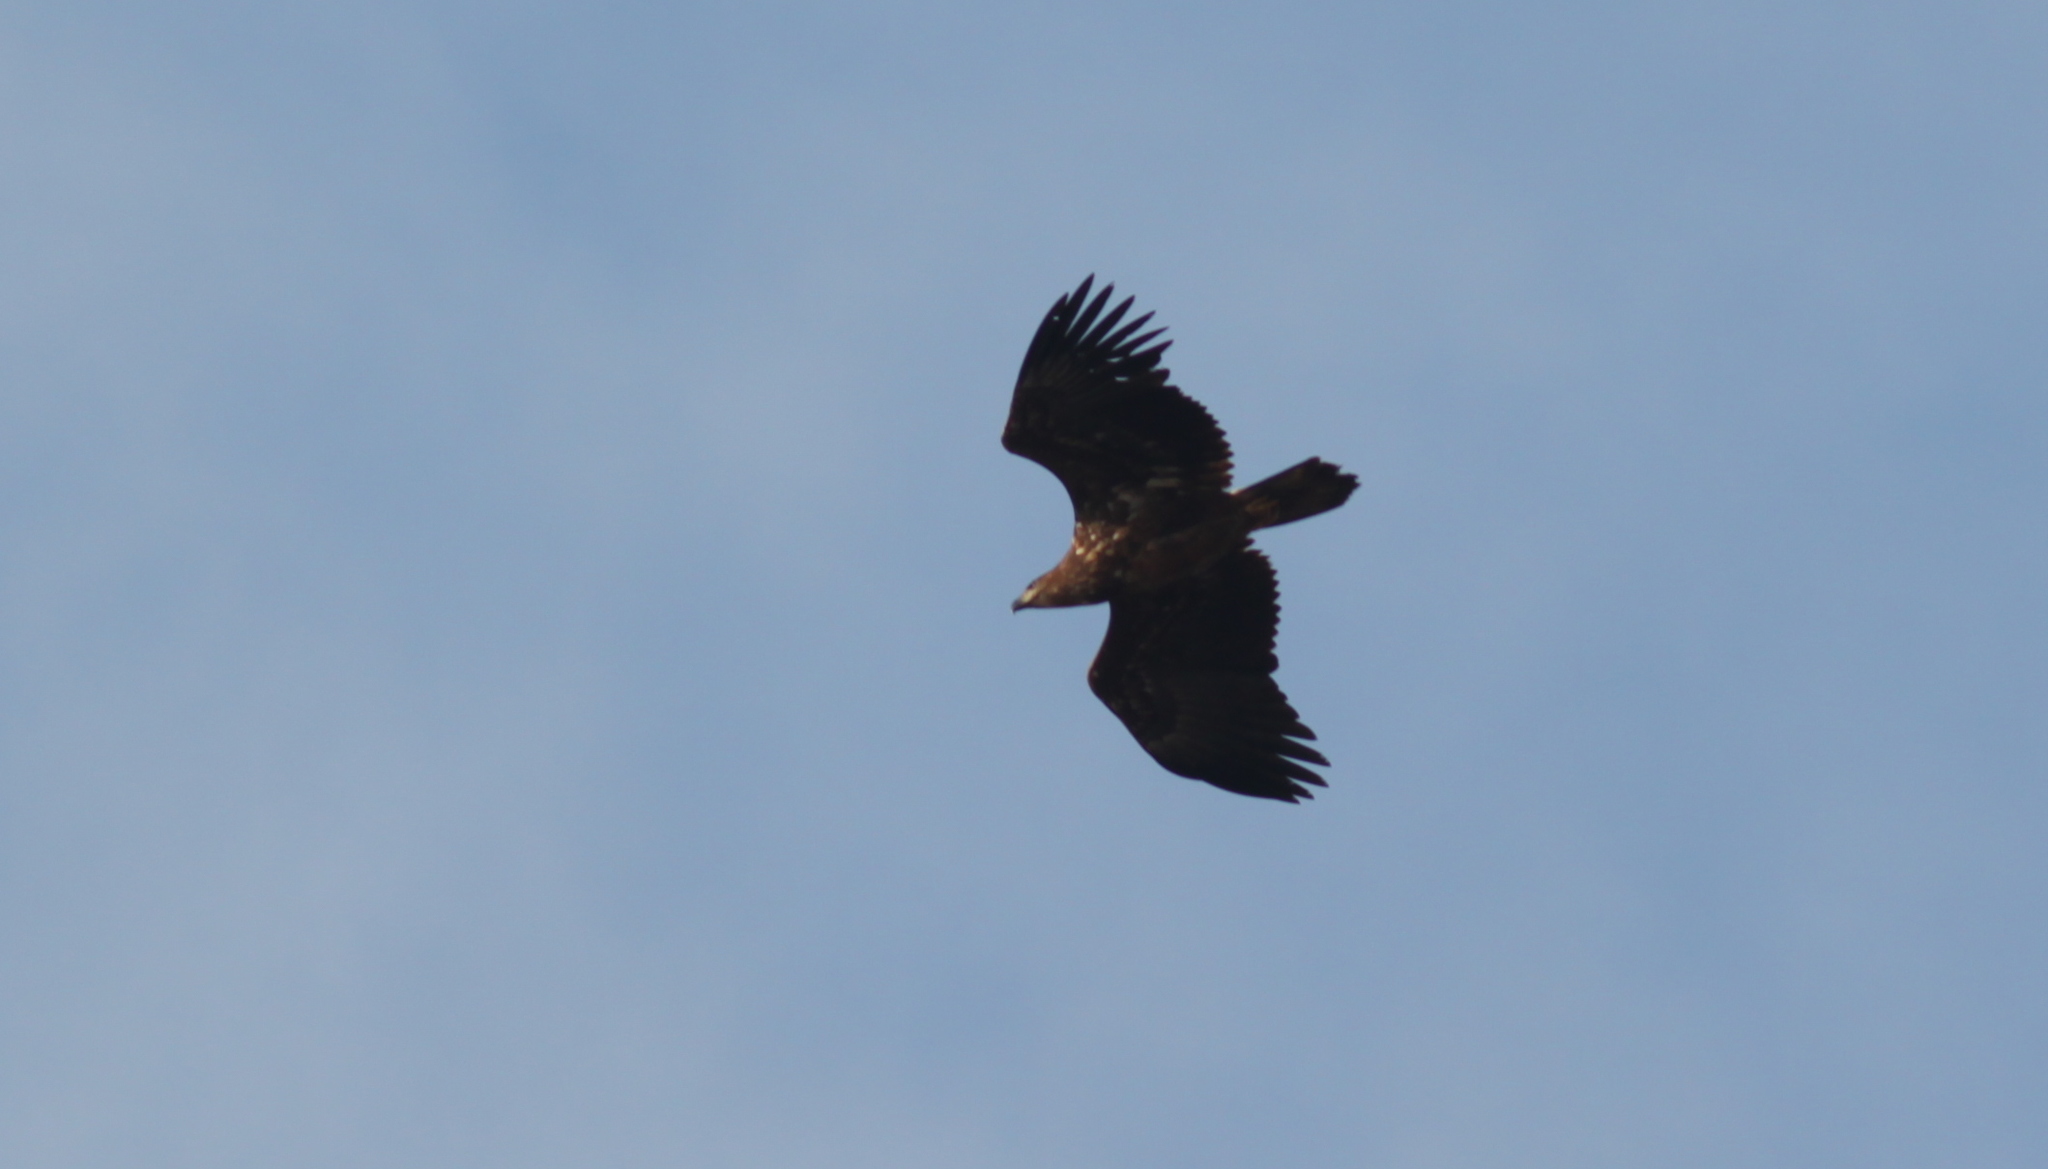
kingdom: Animalia
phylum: Chordata
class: Aves
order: Accipitriformes
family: Accipitridae
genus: Haliaeetus
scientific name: Haliaeetus albicilla
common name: White-tailed eagle
